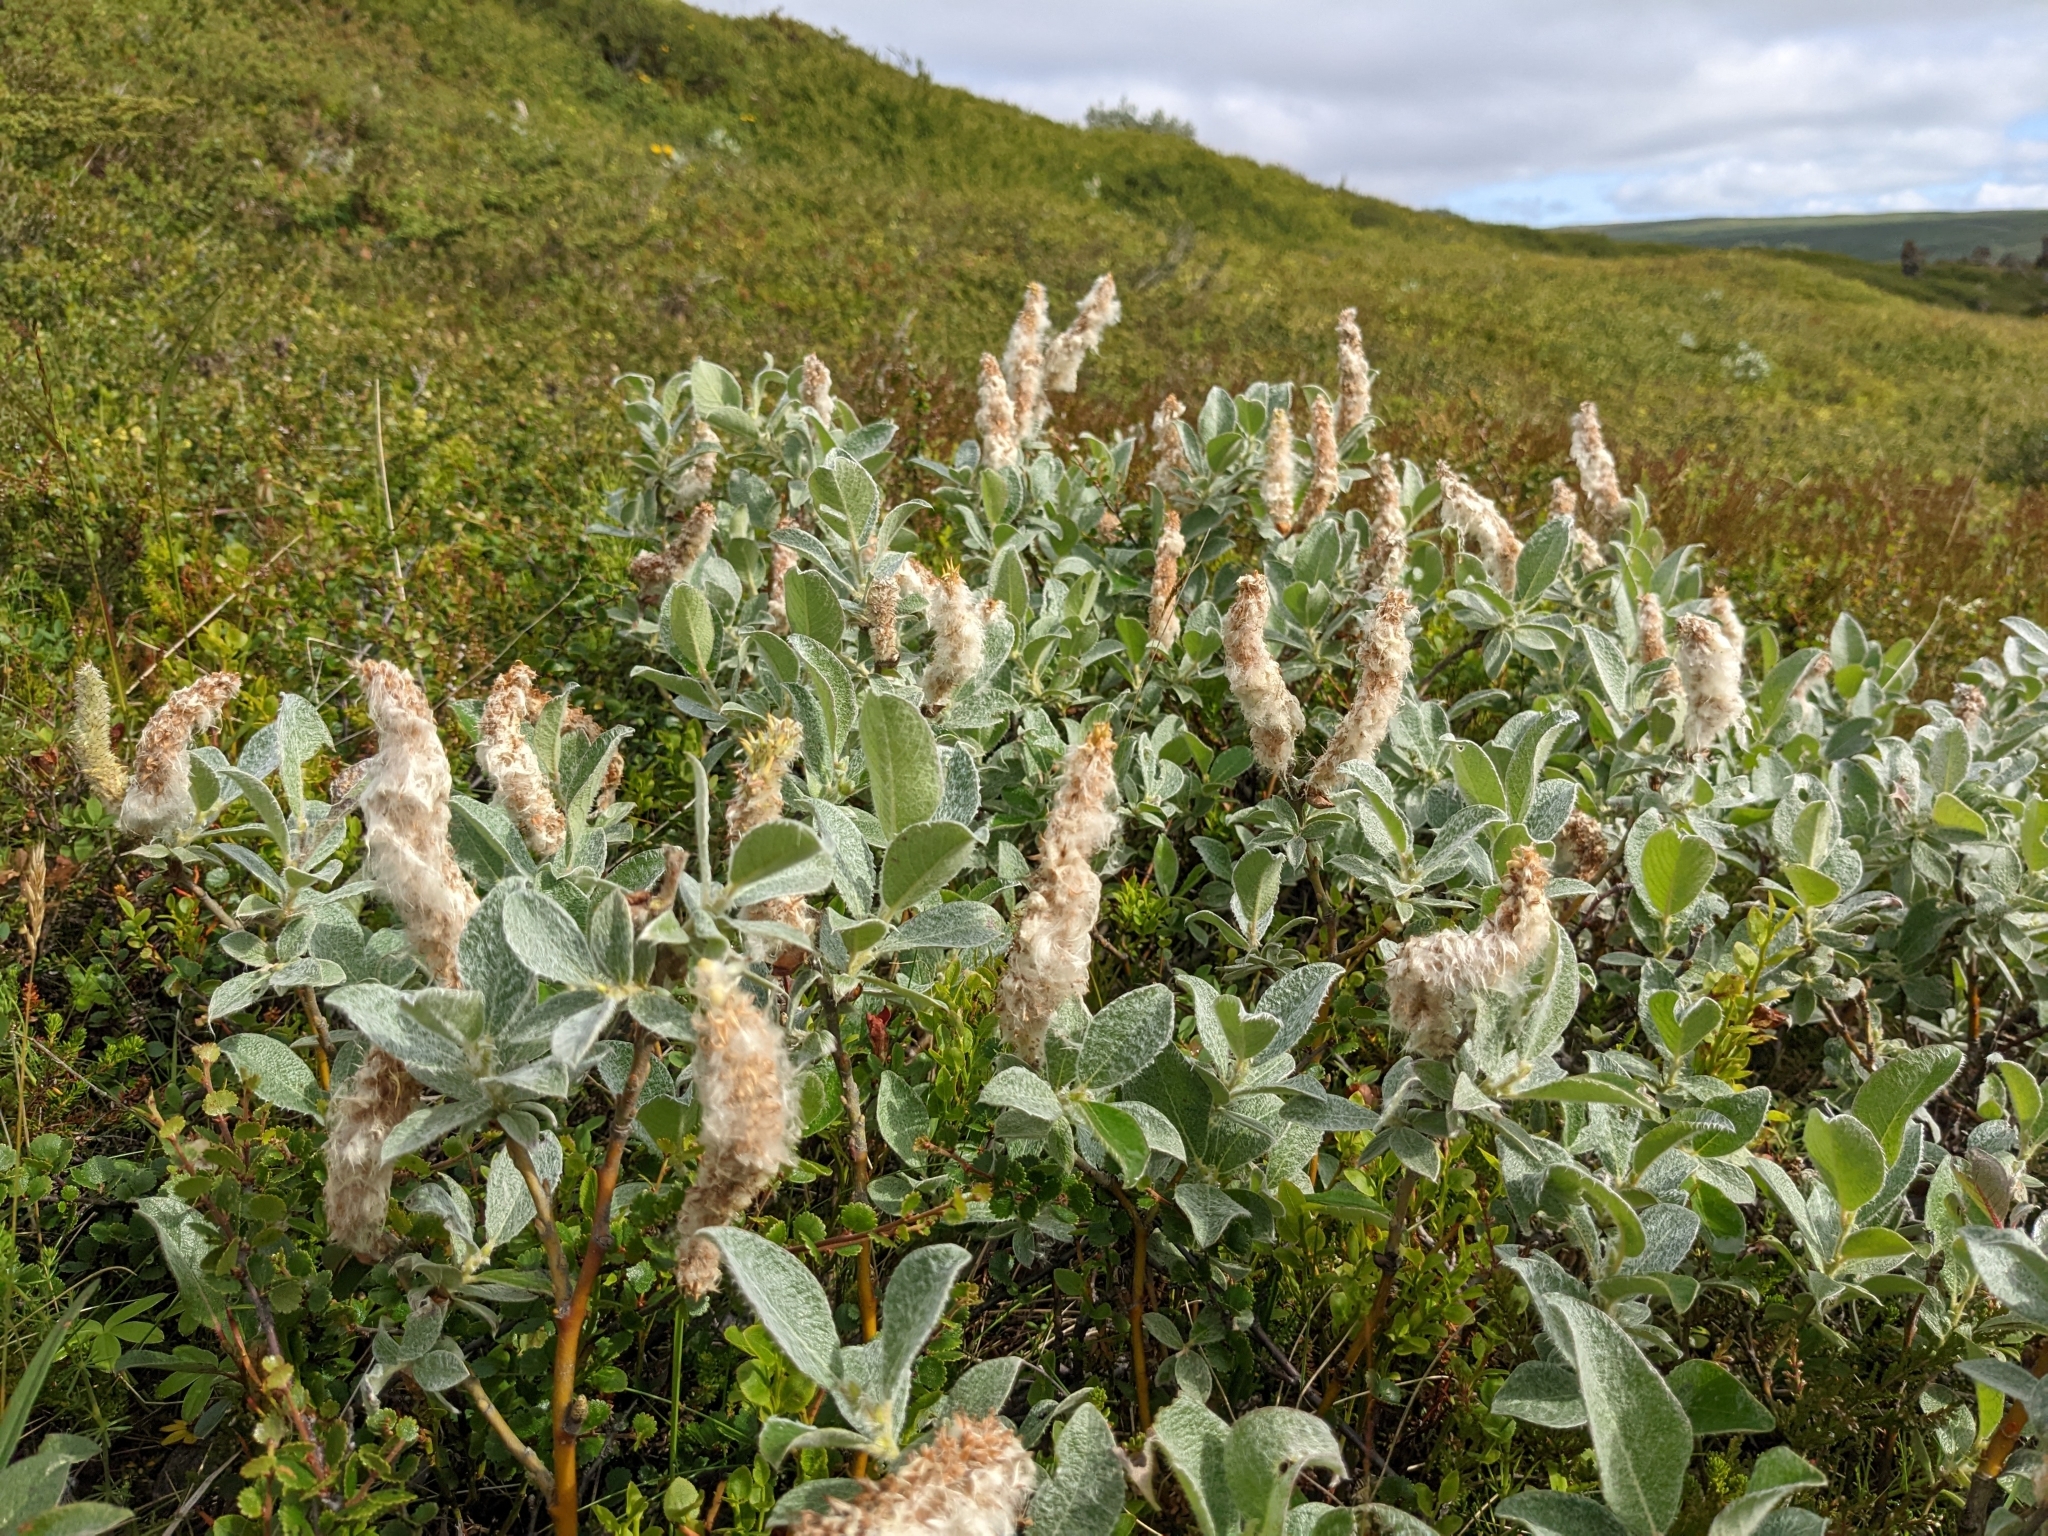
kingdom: Plantae
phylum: Tracheophyta
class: Magnoliopsida
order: Malpighiales
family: Salicaceae
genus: Salix
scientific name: Salix lanata
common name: Woolly willow
